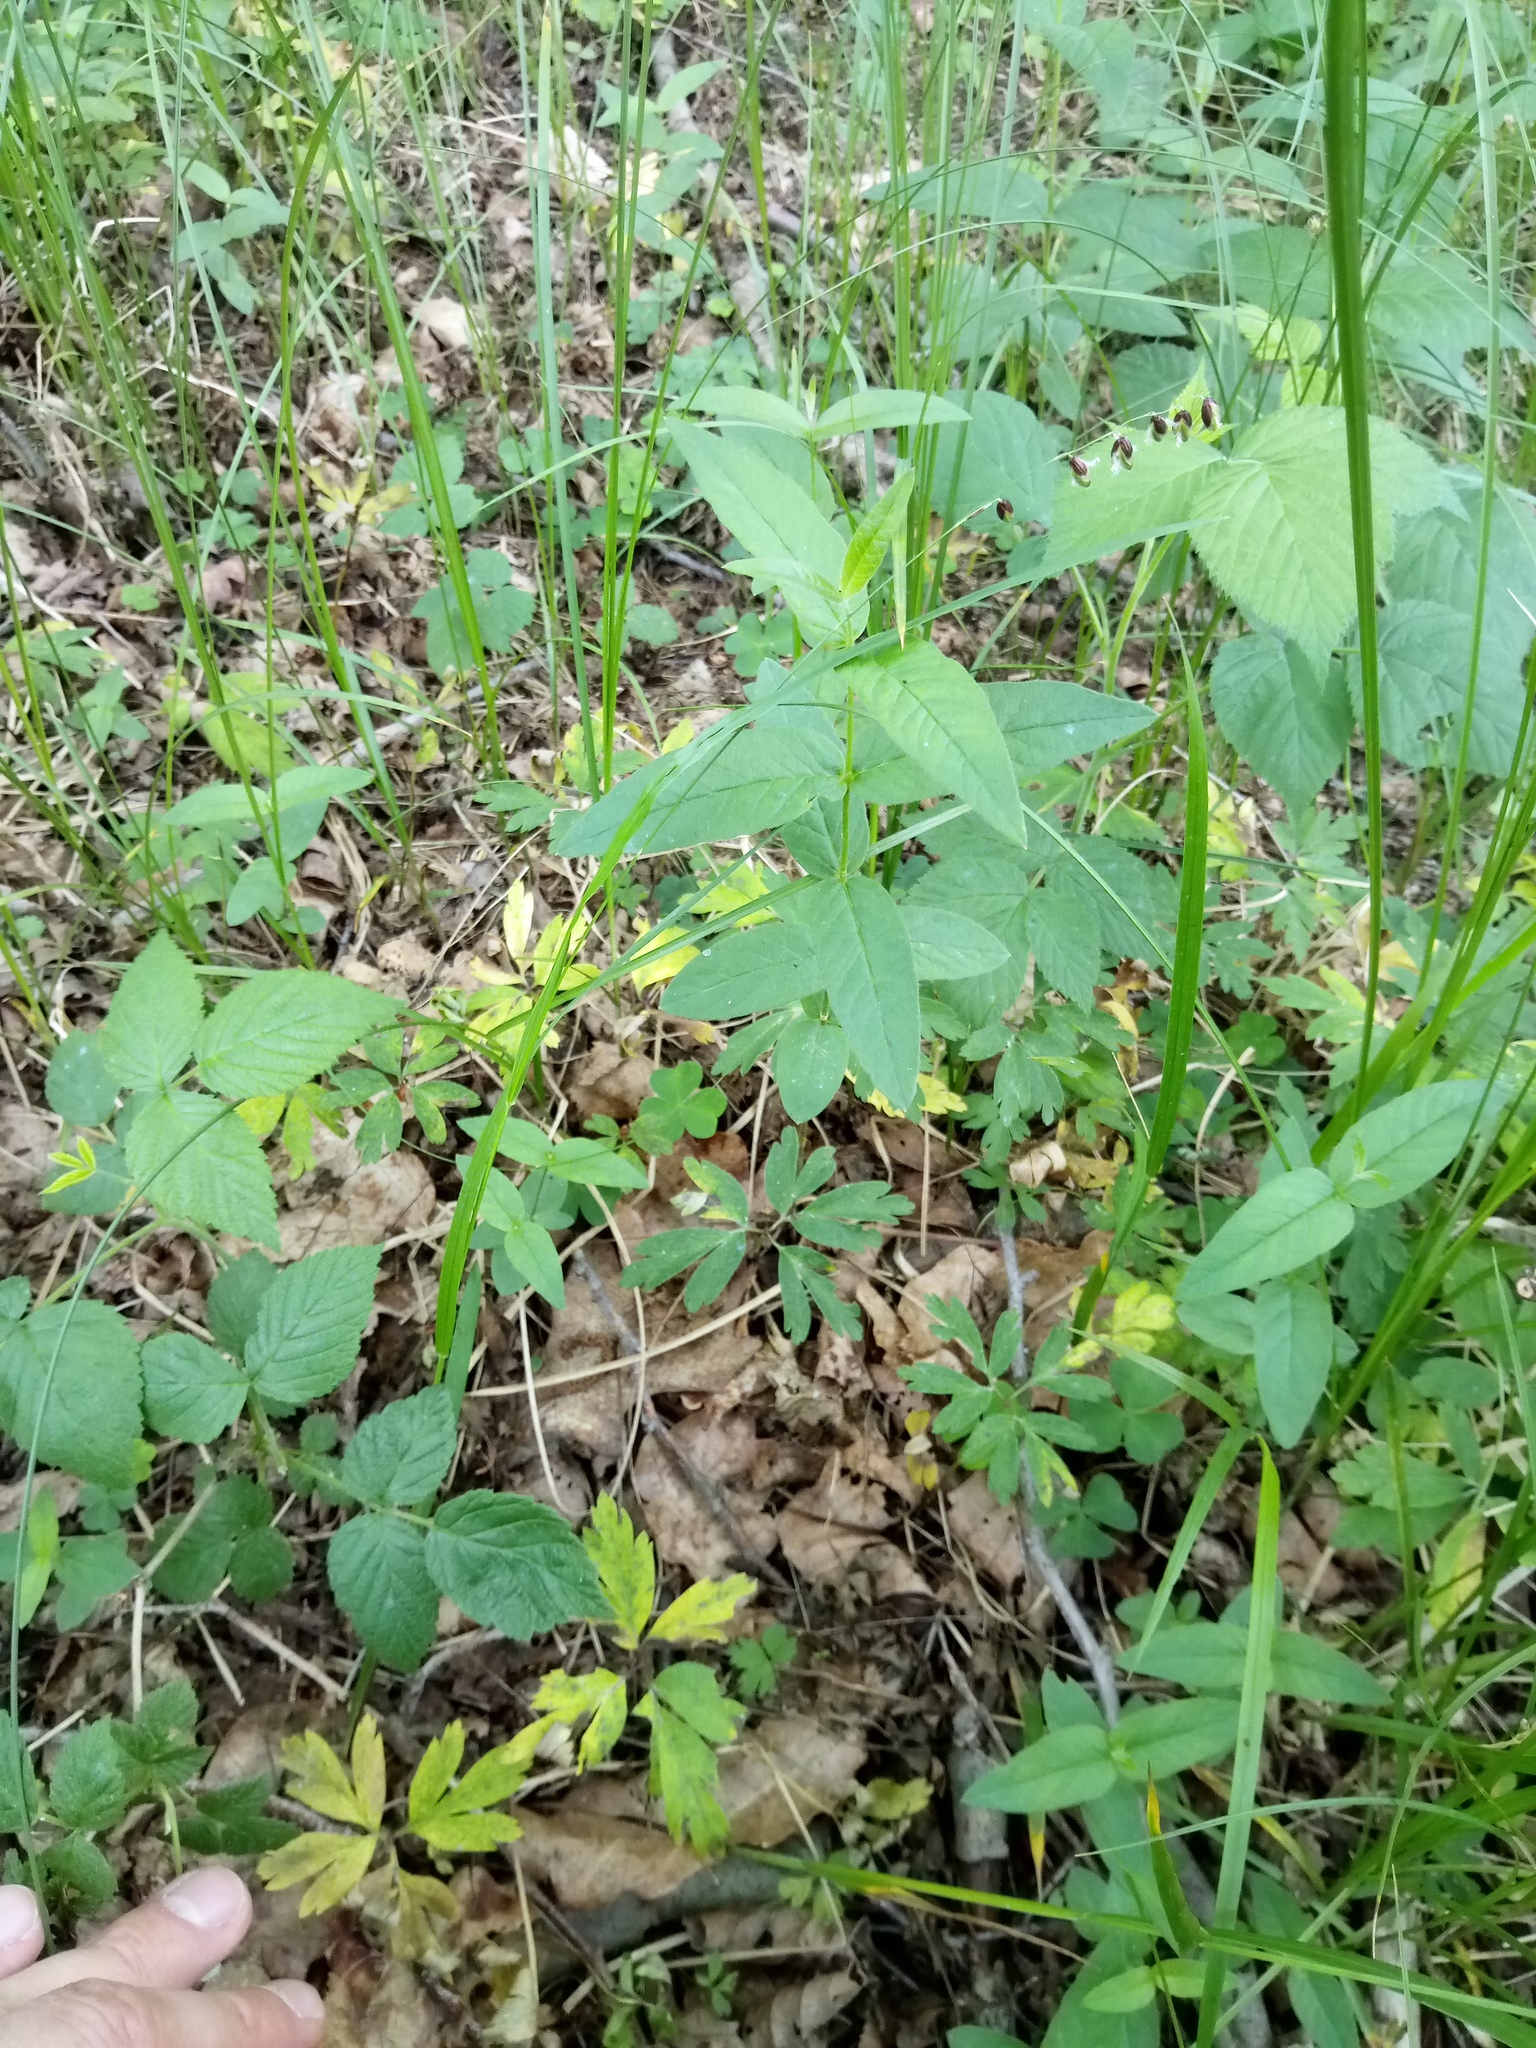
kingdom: Plantae
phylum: Tracheophyta
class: Liliopsida
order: Poales
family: Poaceae
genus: Melica
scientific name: Melica nutans
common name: Mountain melick
